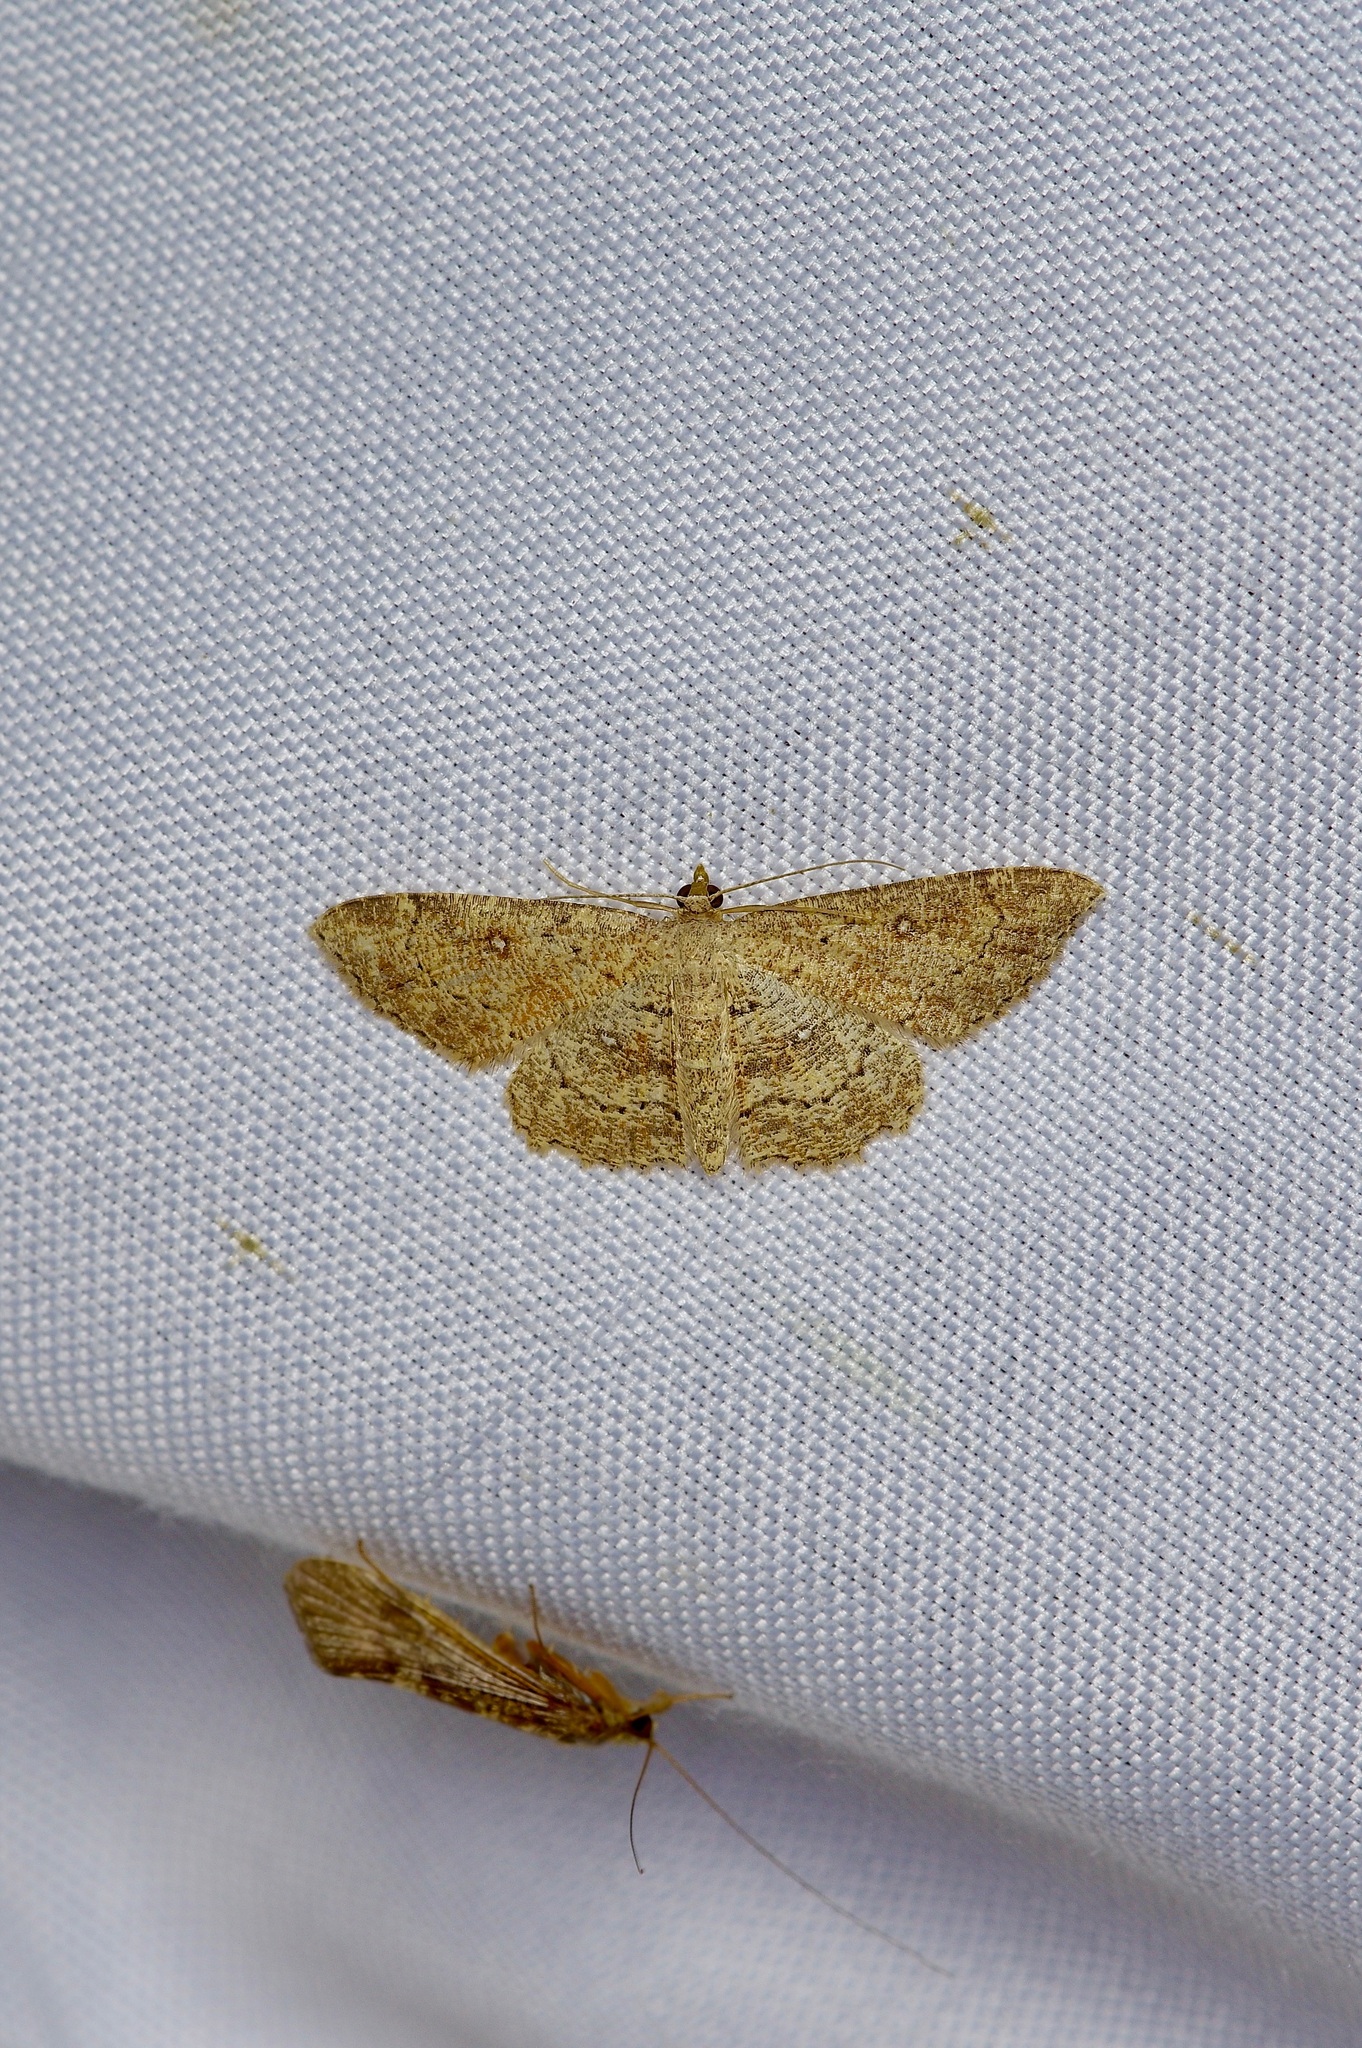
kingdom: Animalia
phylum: Arthropoda
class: Insecta
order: Lepidoptera
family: Geometridae
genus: Cyclophora
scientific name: Cyclophora nanaria
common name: Cankerworm
